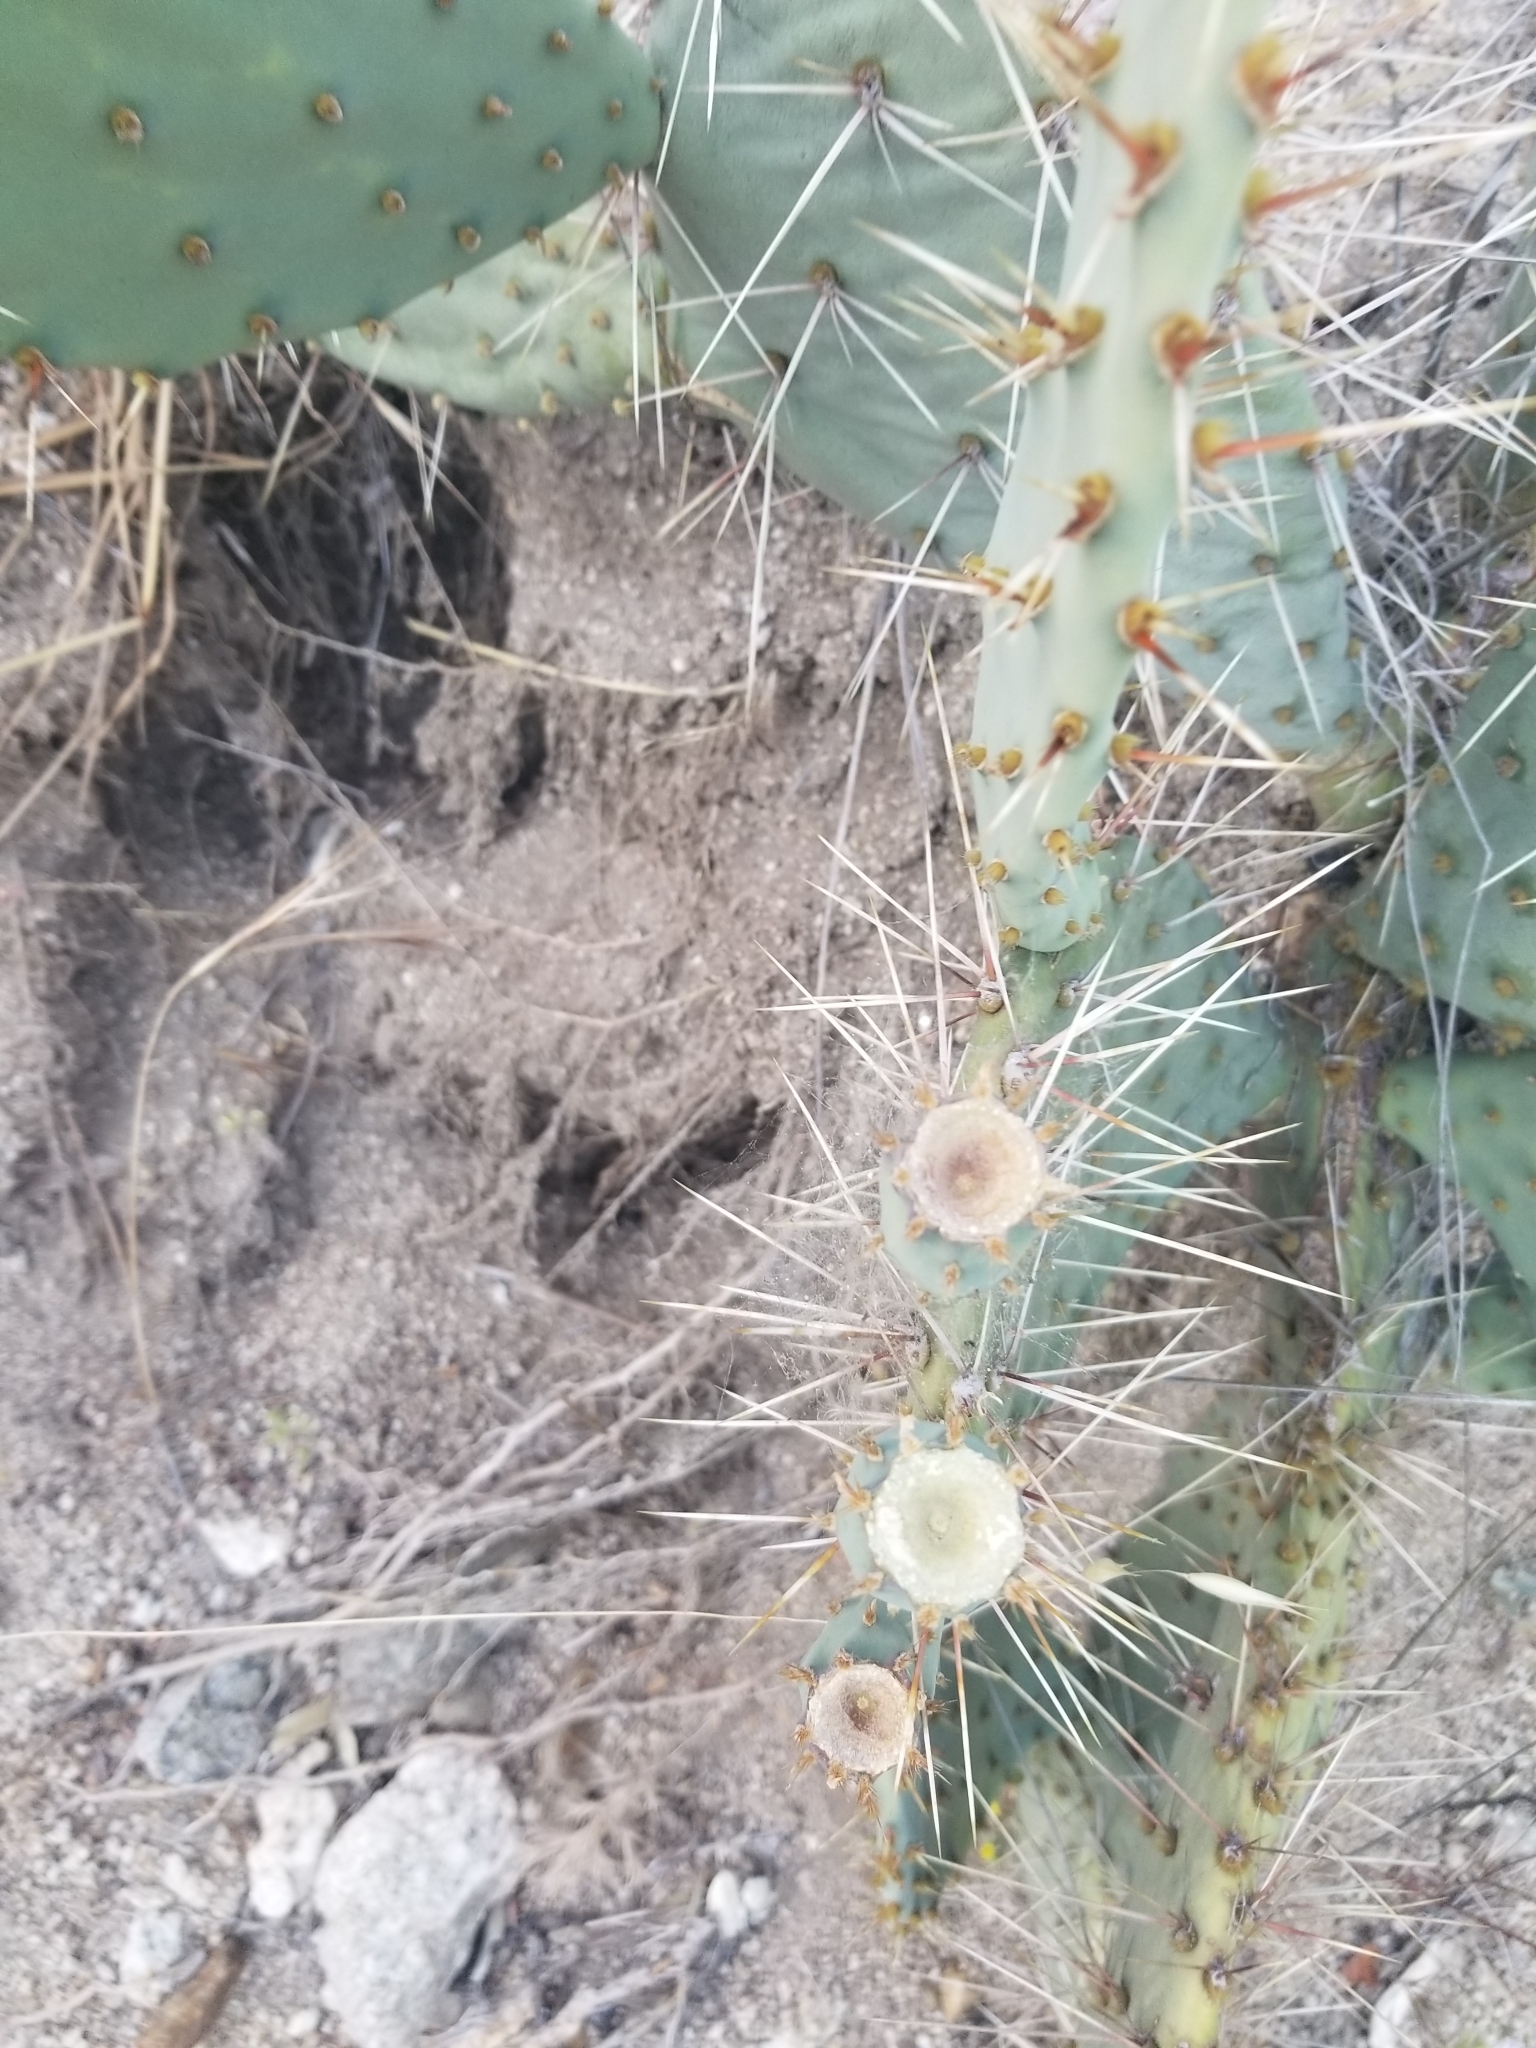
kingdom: Plantae
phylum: Tracheophyta
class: Magnoliopsida
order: Caryophyllales
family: Cactaceae
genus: Opuntia
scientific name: Opuntia phaeacantha
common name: New mexico prickly-pear
